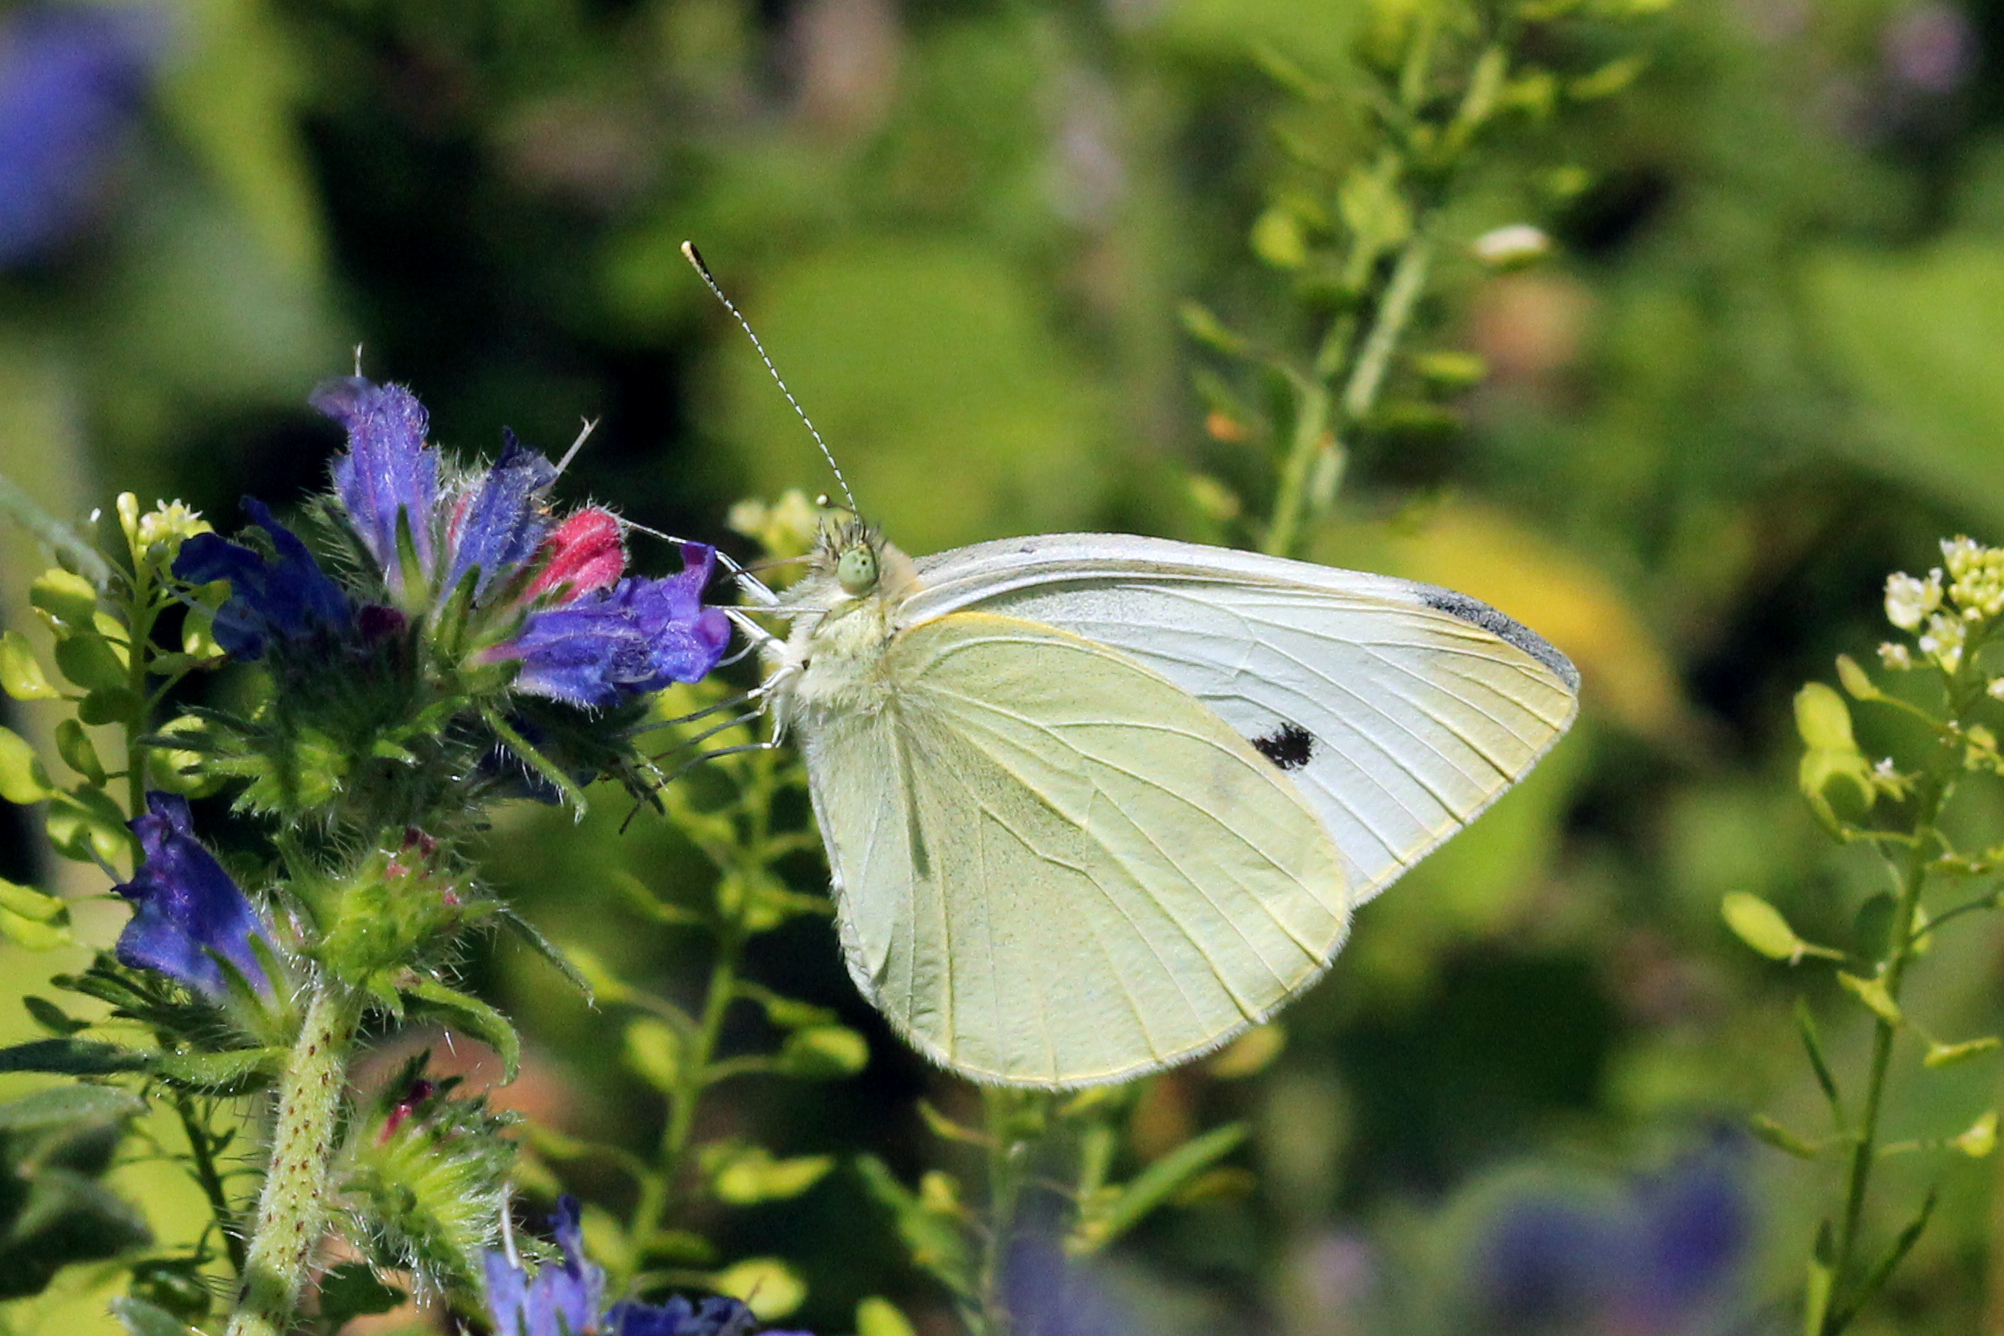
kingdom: Animalia
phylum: Arthropoda
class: Insecta
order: Lepidoptera
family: Pieridae
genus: Pieris
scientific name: Pieris rapae
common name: Small white
